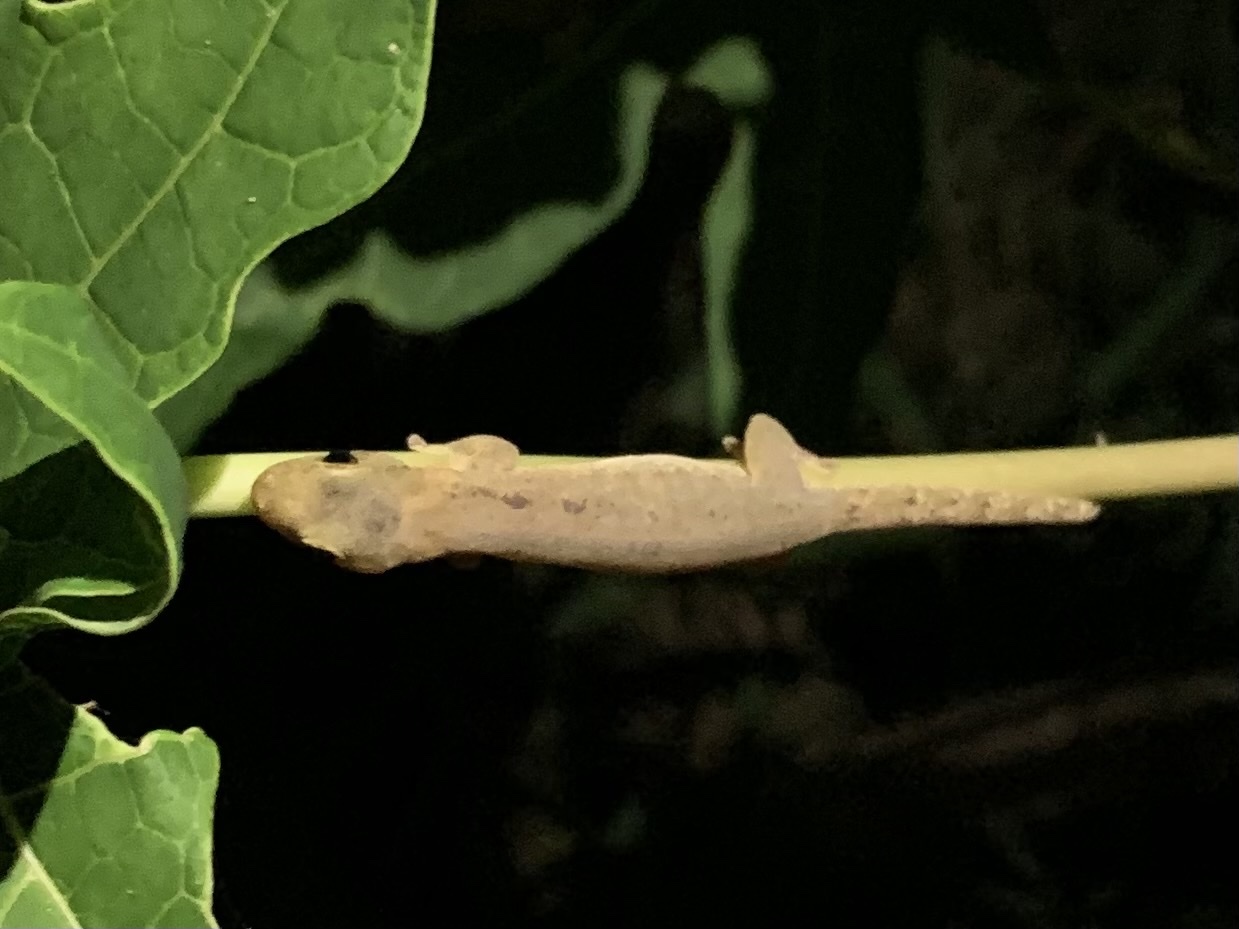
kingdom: Animalia
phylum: Chordata
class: Squamata
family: Gekkonidae
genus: Lepidodactylus
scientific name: Lepidodactylus vanuatuensis
